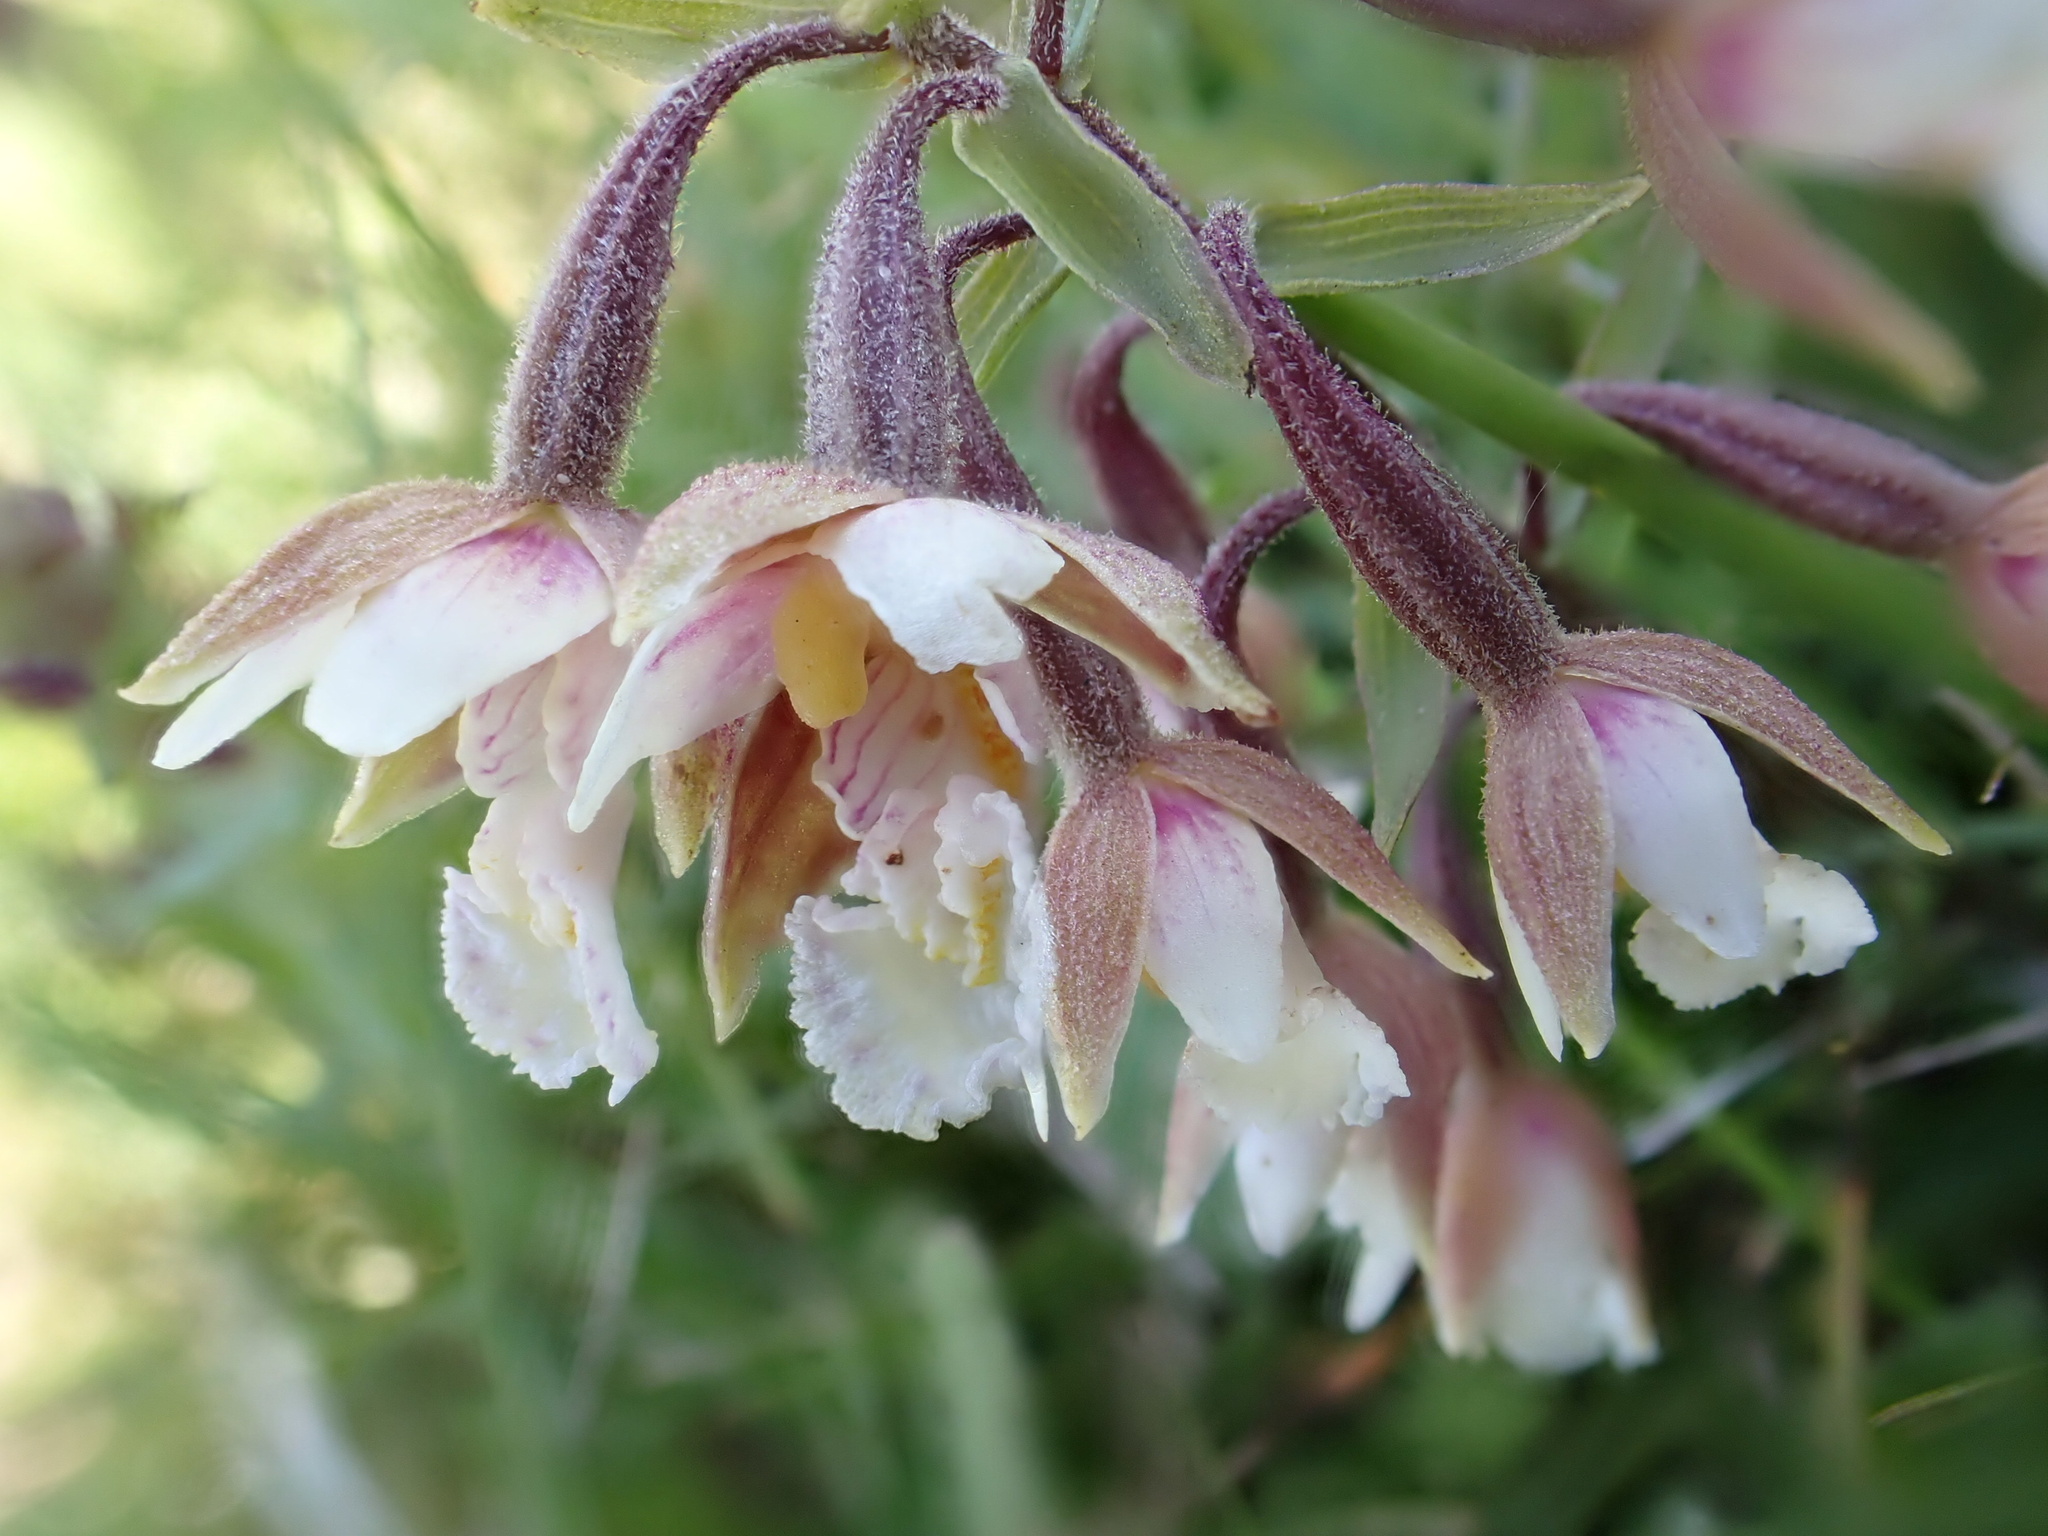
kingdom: Plantae
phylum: Tracheophyta
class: Liliopsida
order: Asparagales
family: Orchidaceae
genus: Epipactis
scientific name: Epipactis palustris
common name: Marsh helleborine
